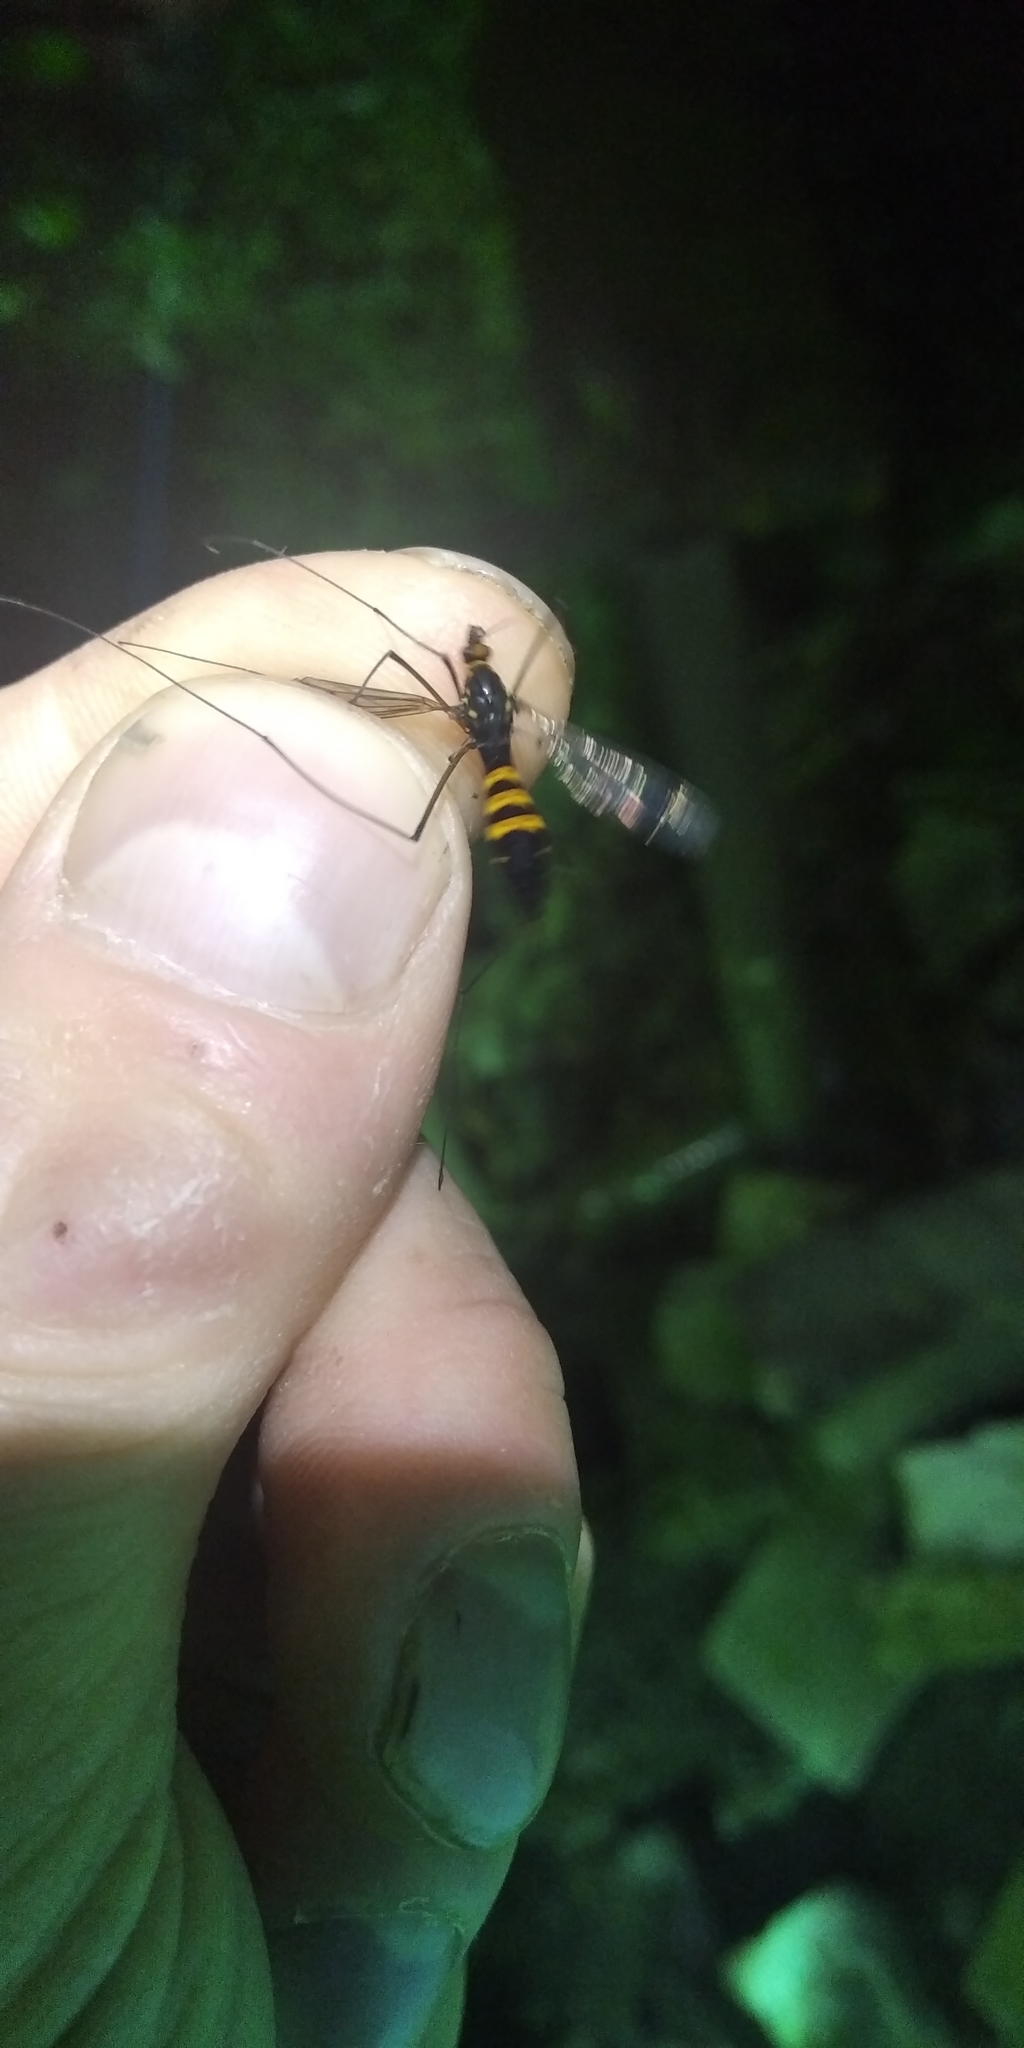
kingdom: Animalia
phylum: Arthropoda
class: Insecta
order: Diptera
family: Tipulidae
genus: Nephrotoma
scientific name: Nephrotoma crocata
